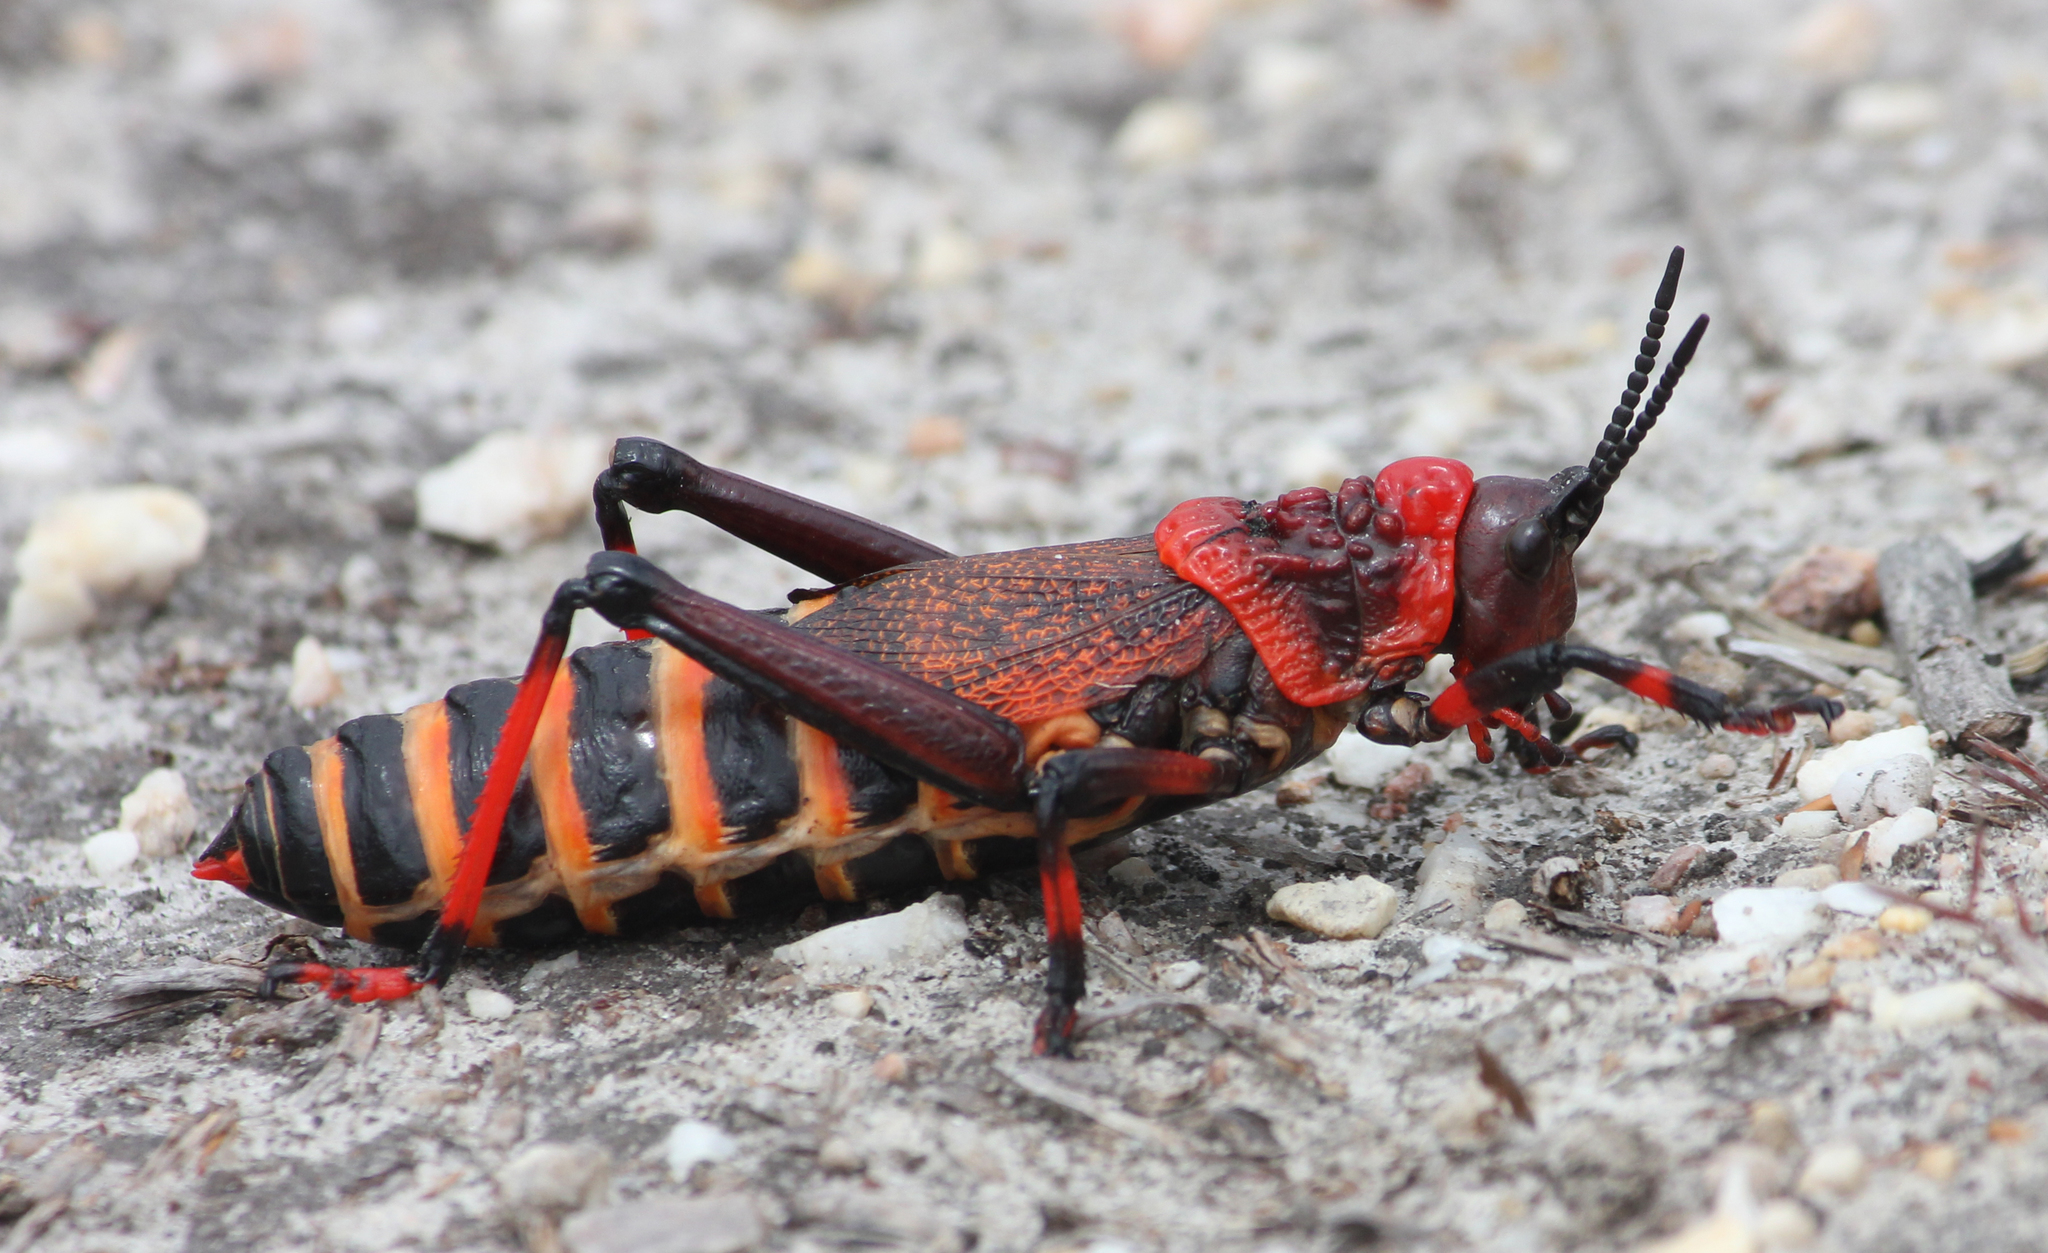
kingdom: Animalia
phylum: Arthropoda
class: Insecta
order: Orthoptera
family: Pyrgomorphidae
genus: Dictyophorus
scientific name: Dictyophorus spumans
